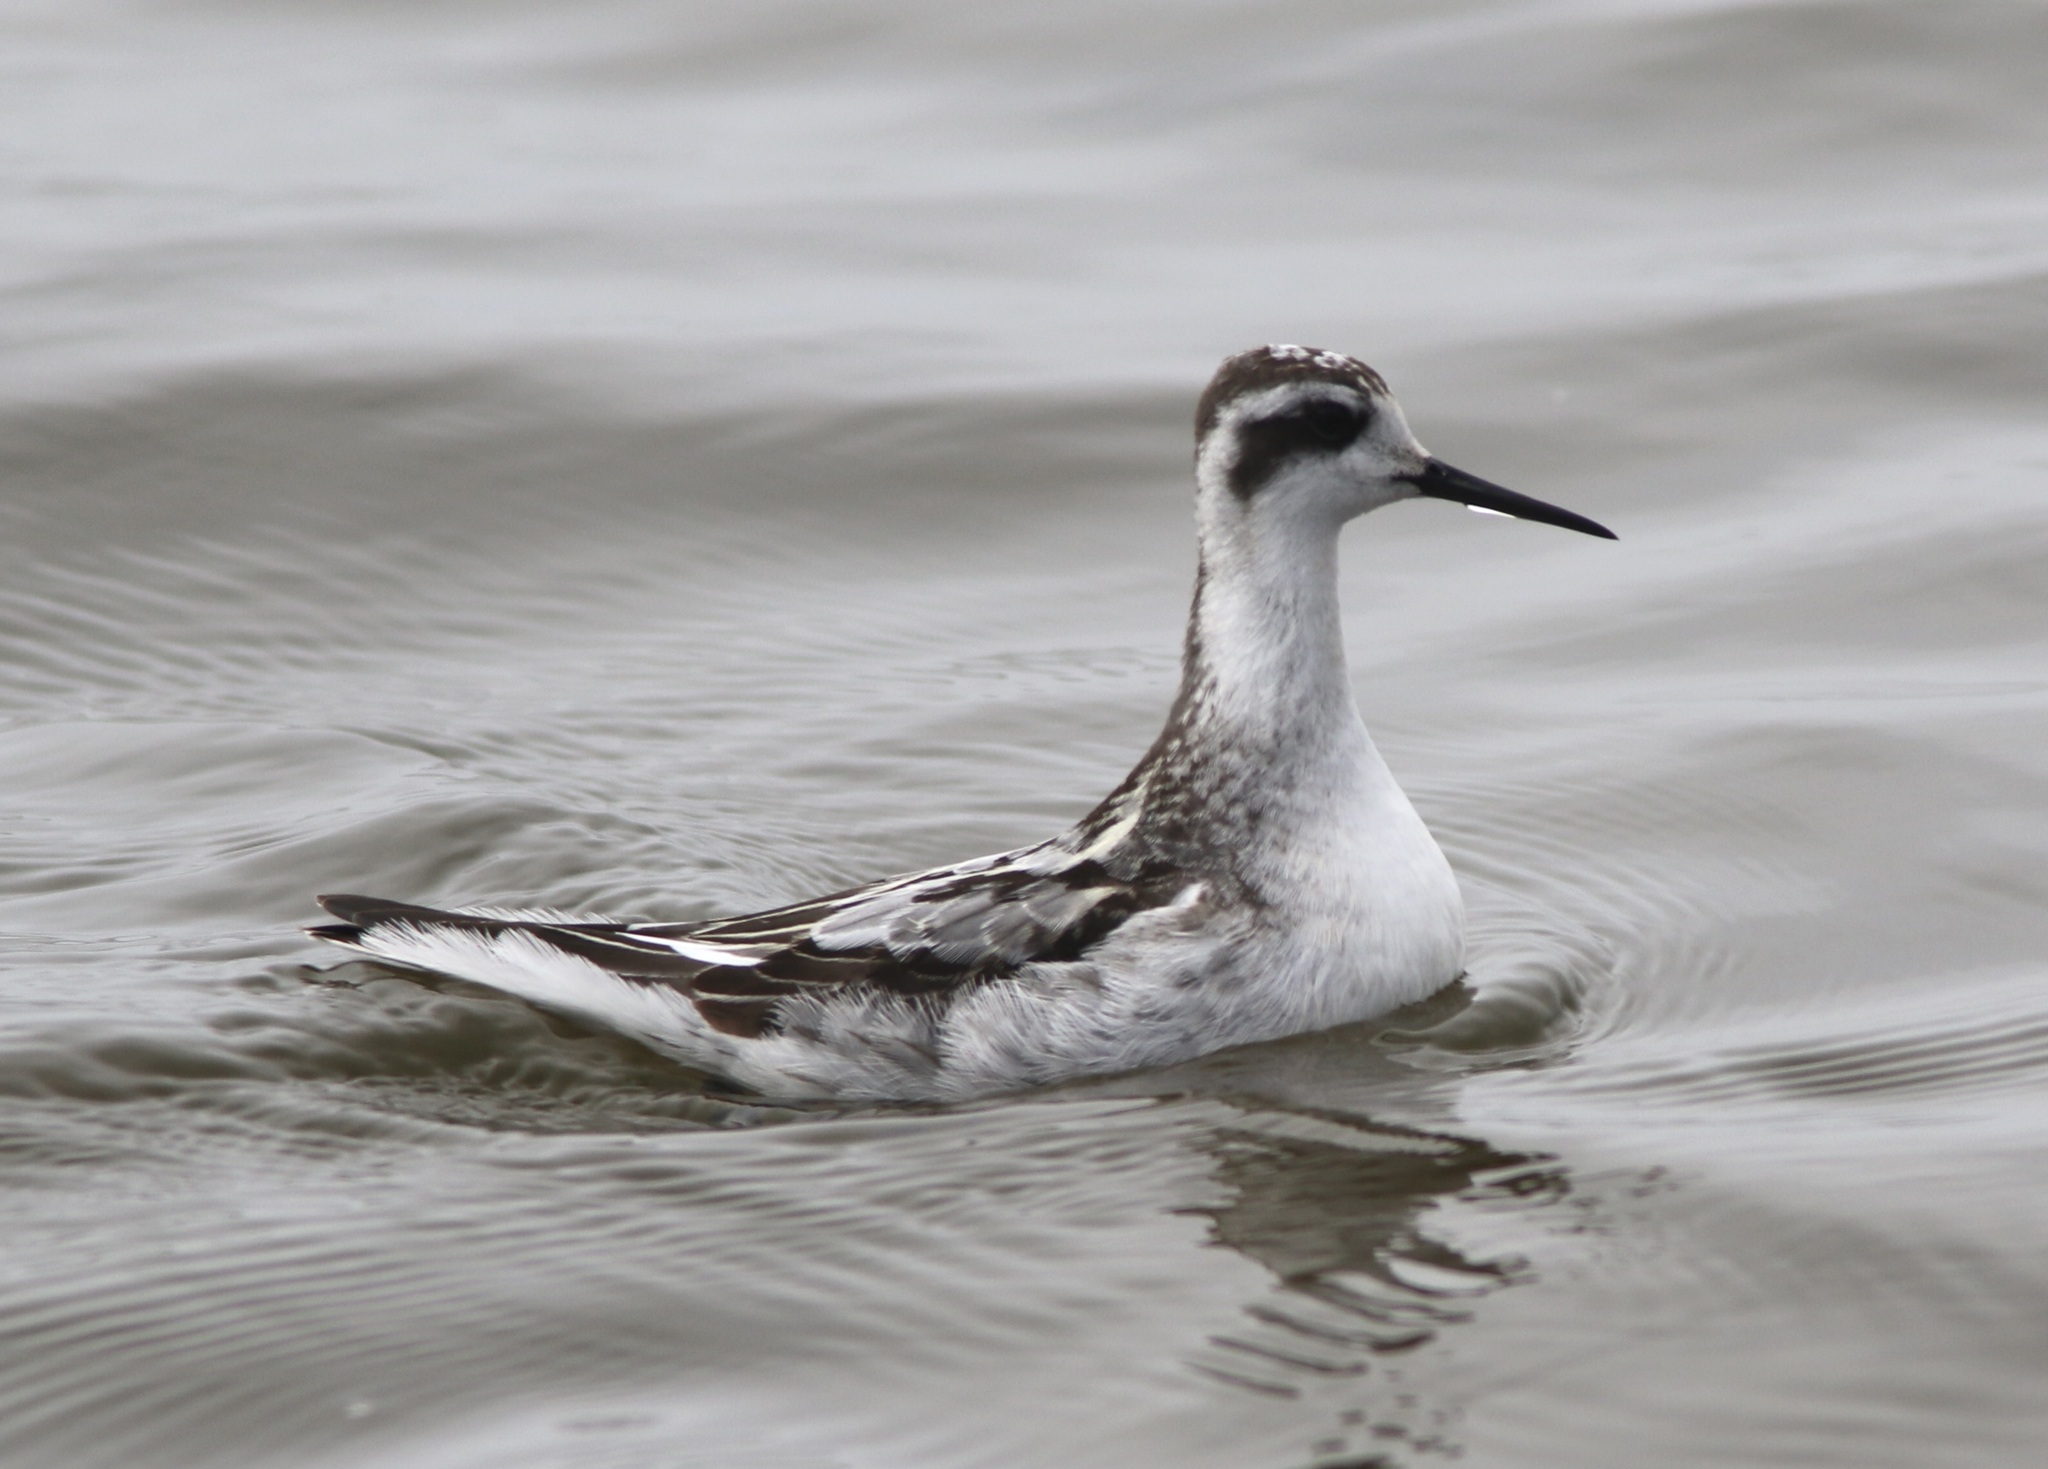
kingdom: Animalia
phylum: Chordata
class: Aves
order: Charadriiformes
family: Scolopacidae
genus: Phalaropus
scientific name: Phalaropus lobatus
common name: Red-necked phalarope
